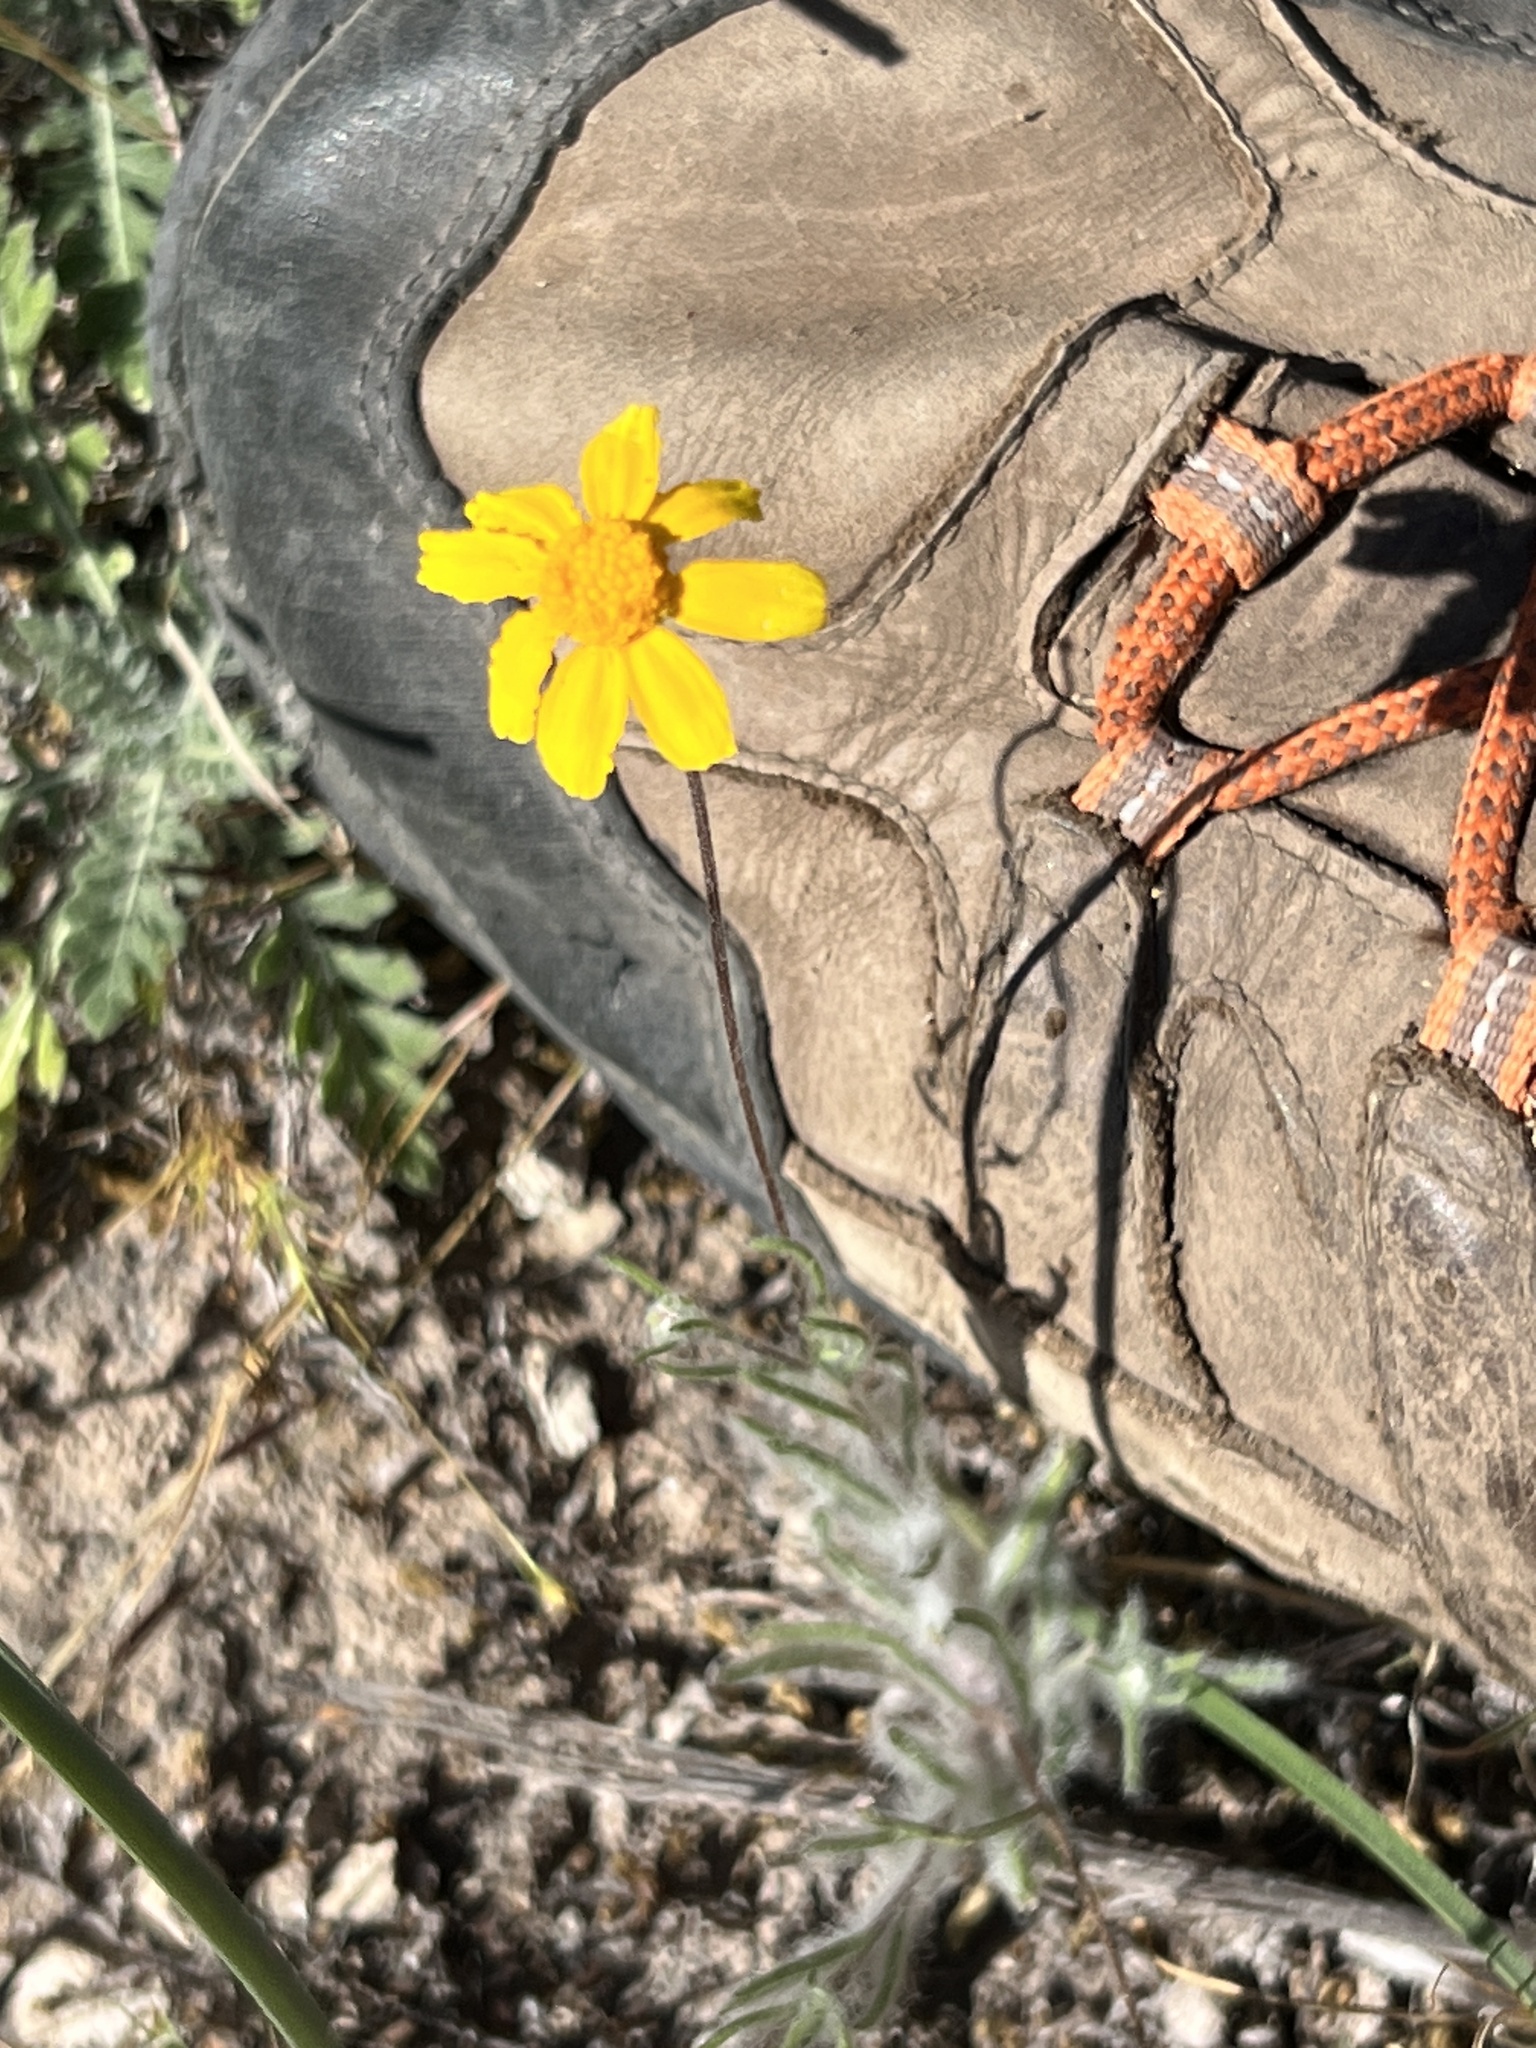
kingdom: Plantae
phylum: Tracheophyta
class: Magnoliopsida
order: Asterales
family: Asteraceae
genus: Tetraneuris
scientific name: Tetraneuris scaposa
